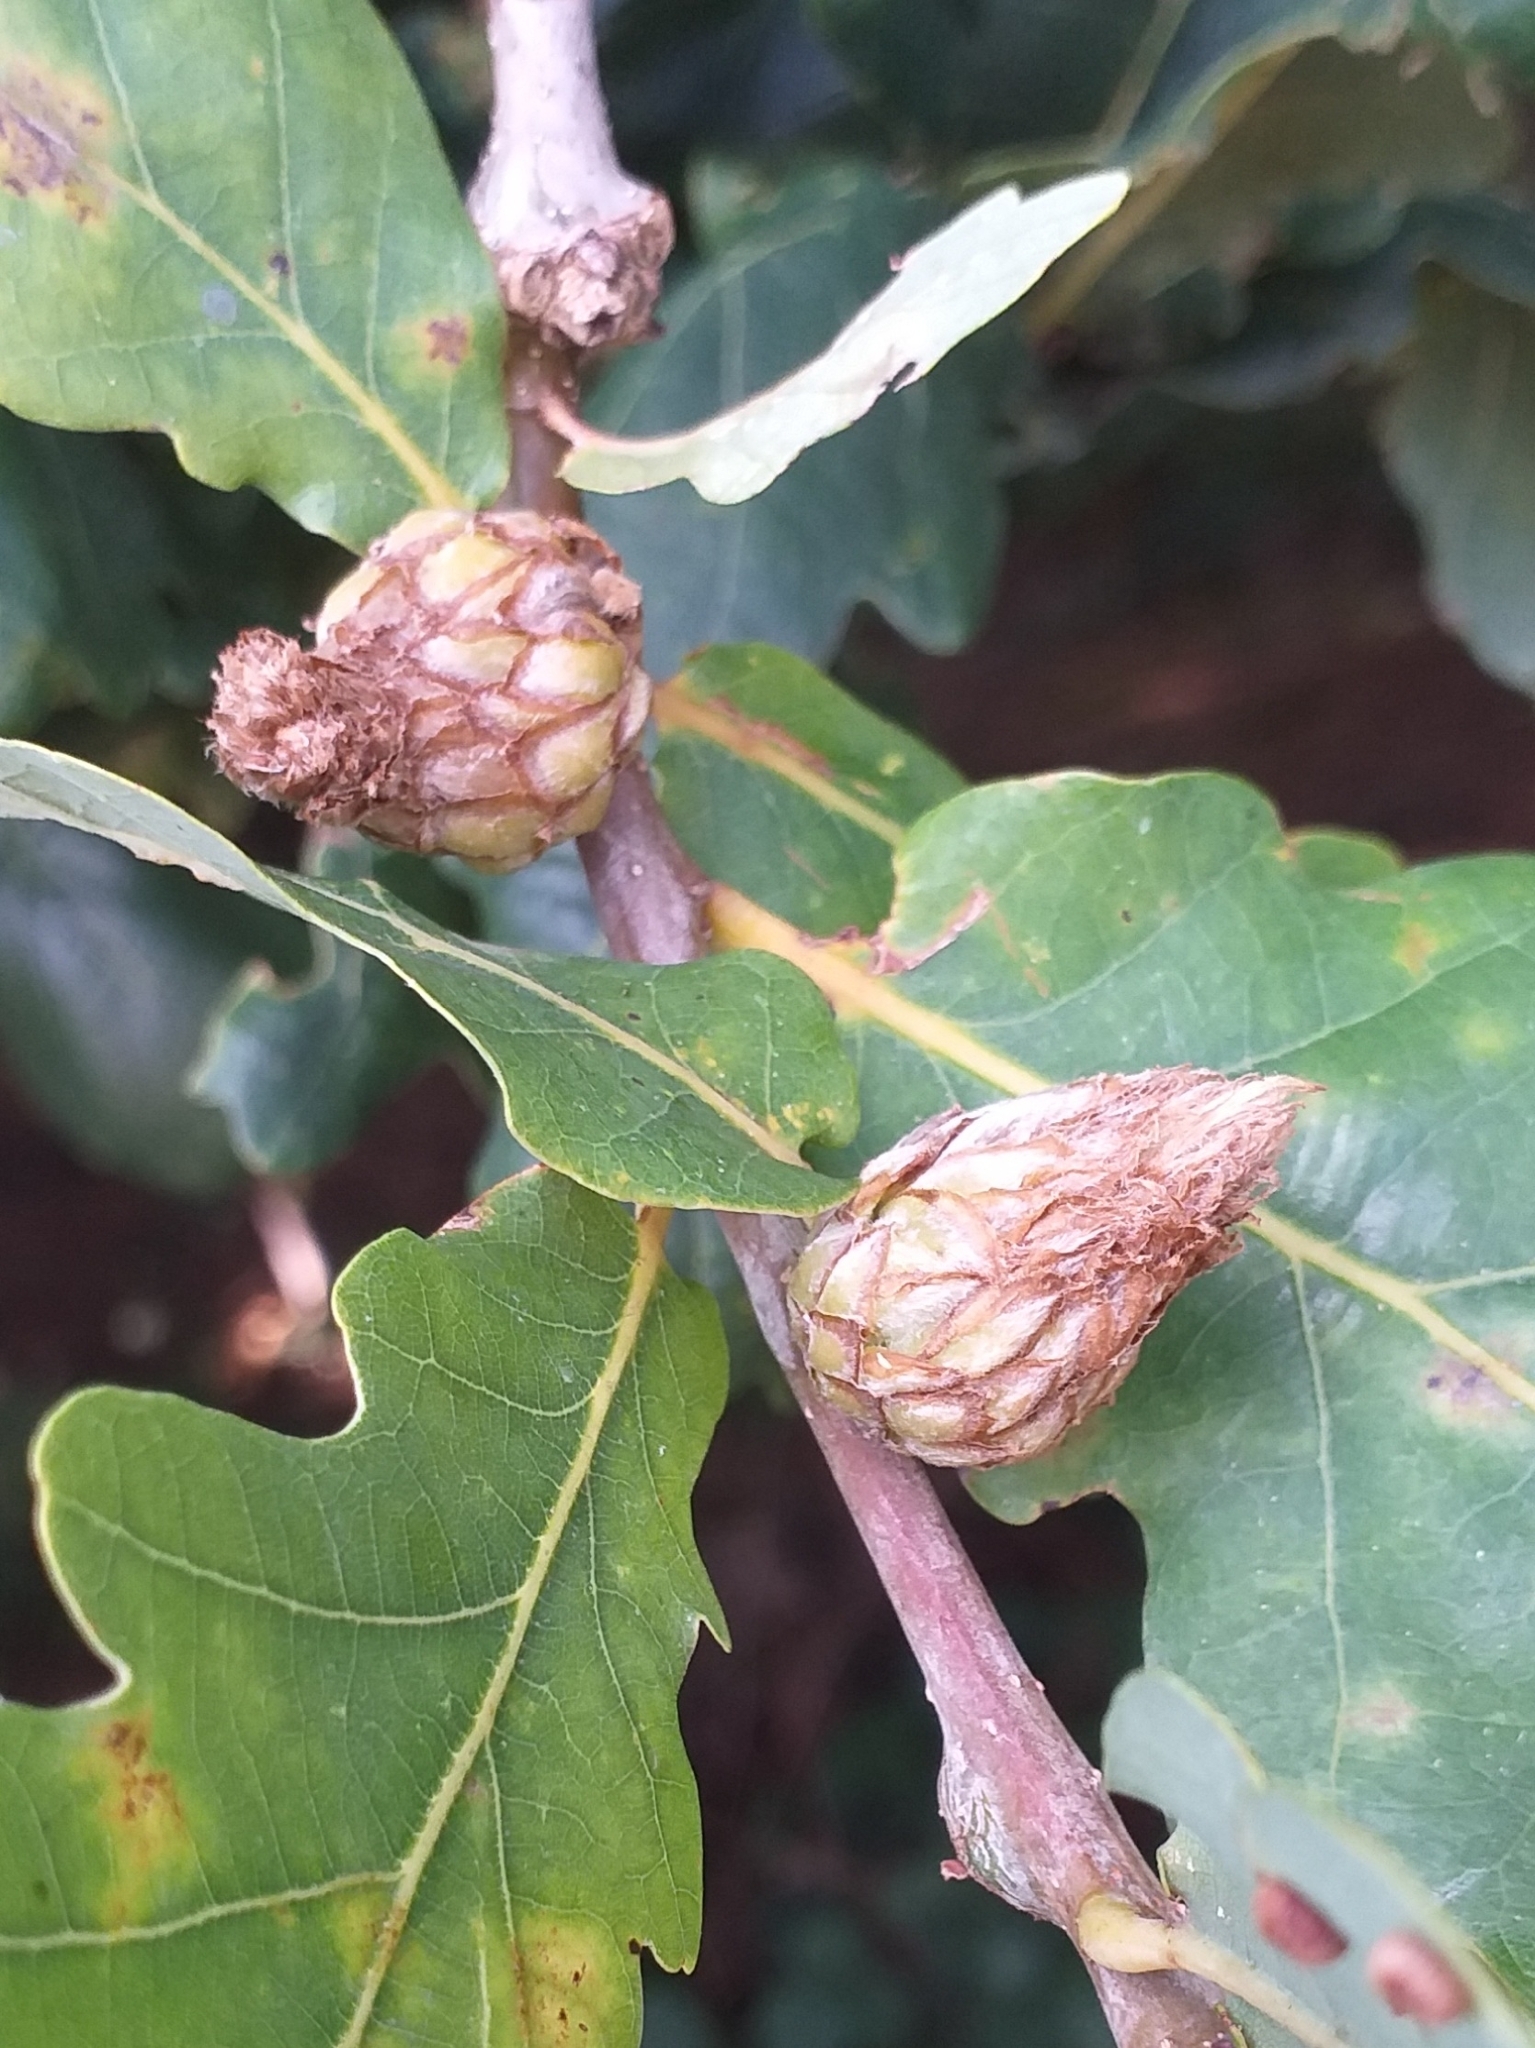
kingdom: Animalia
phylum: Arthropoda
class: Insecta
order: Hymenoptera
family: Cynipidae
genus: Andricus
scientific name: Andricus foecundatrix
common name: Artichoke gall
